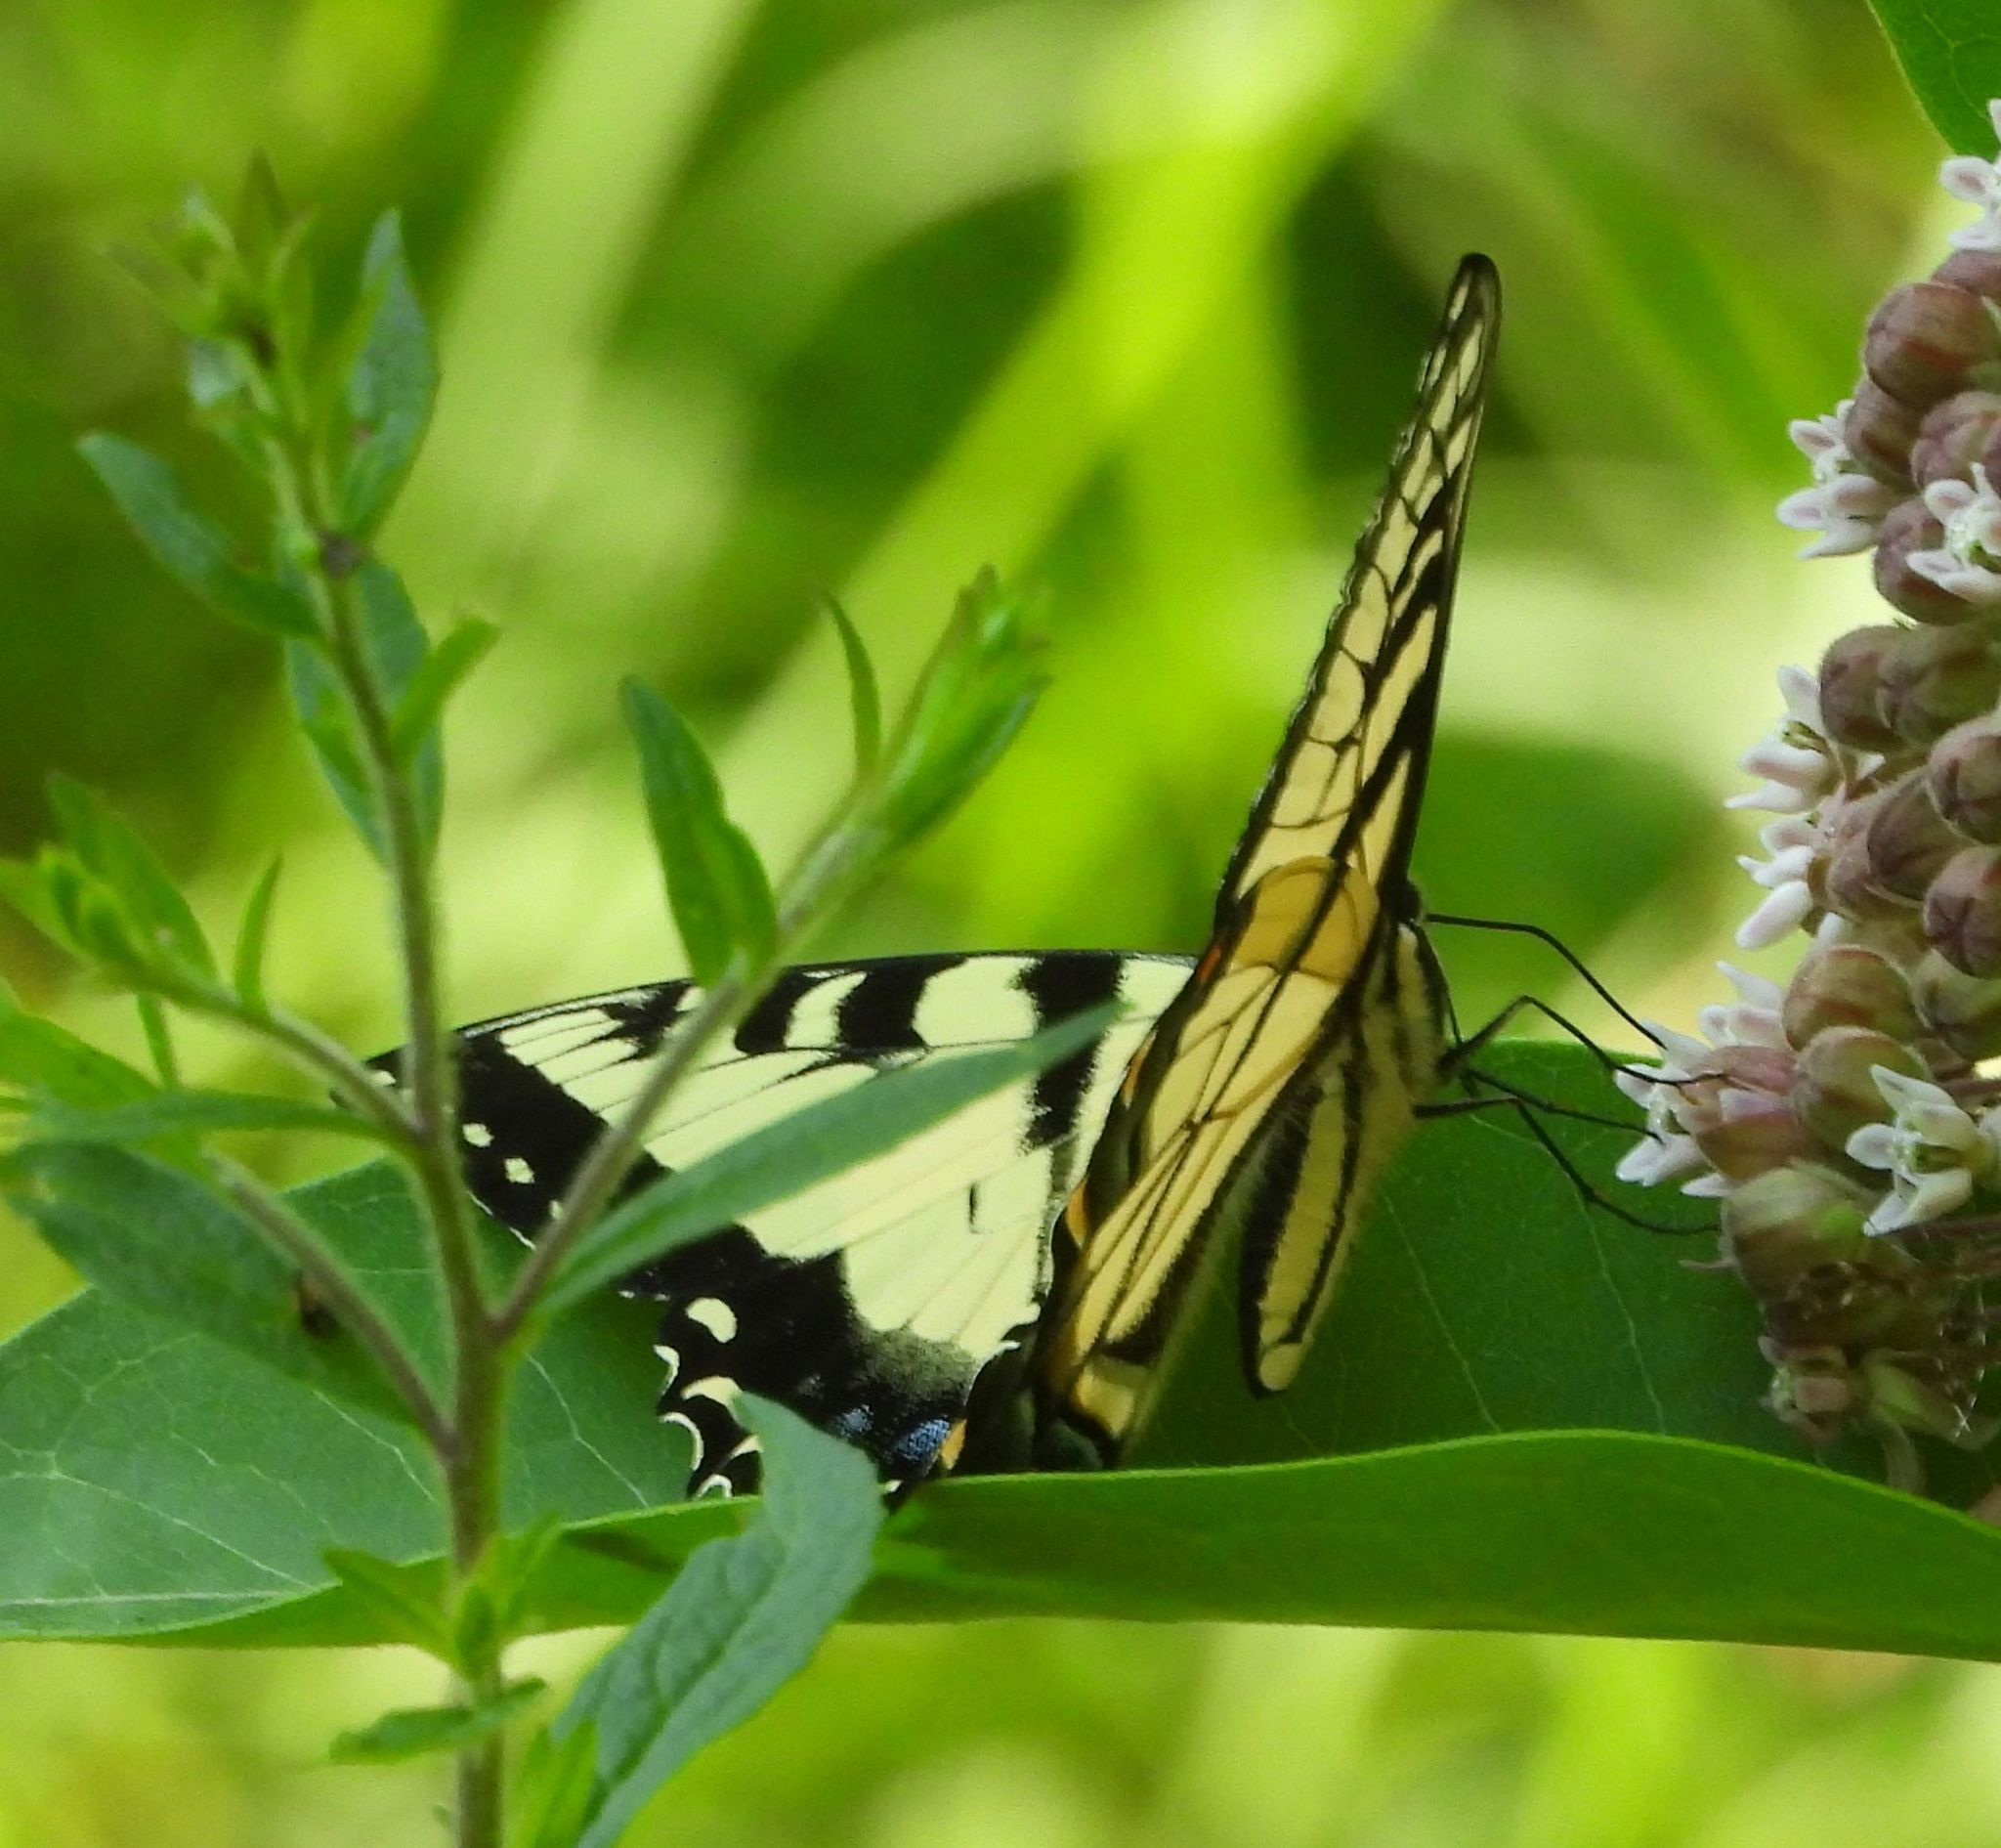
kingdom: Animalia
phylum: Arthropoda
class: Insecta
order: Lepidoptera
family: Papilionidae
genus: Papilio
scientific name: Papilio
